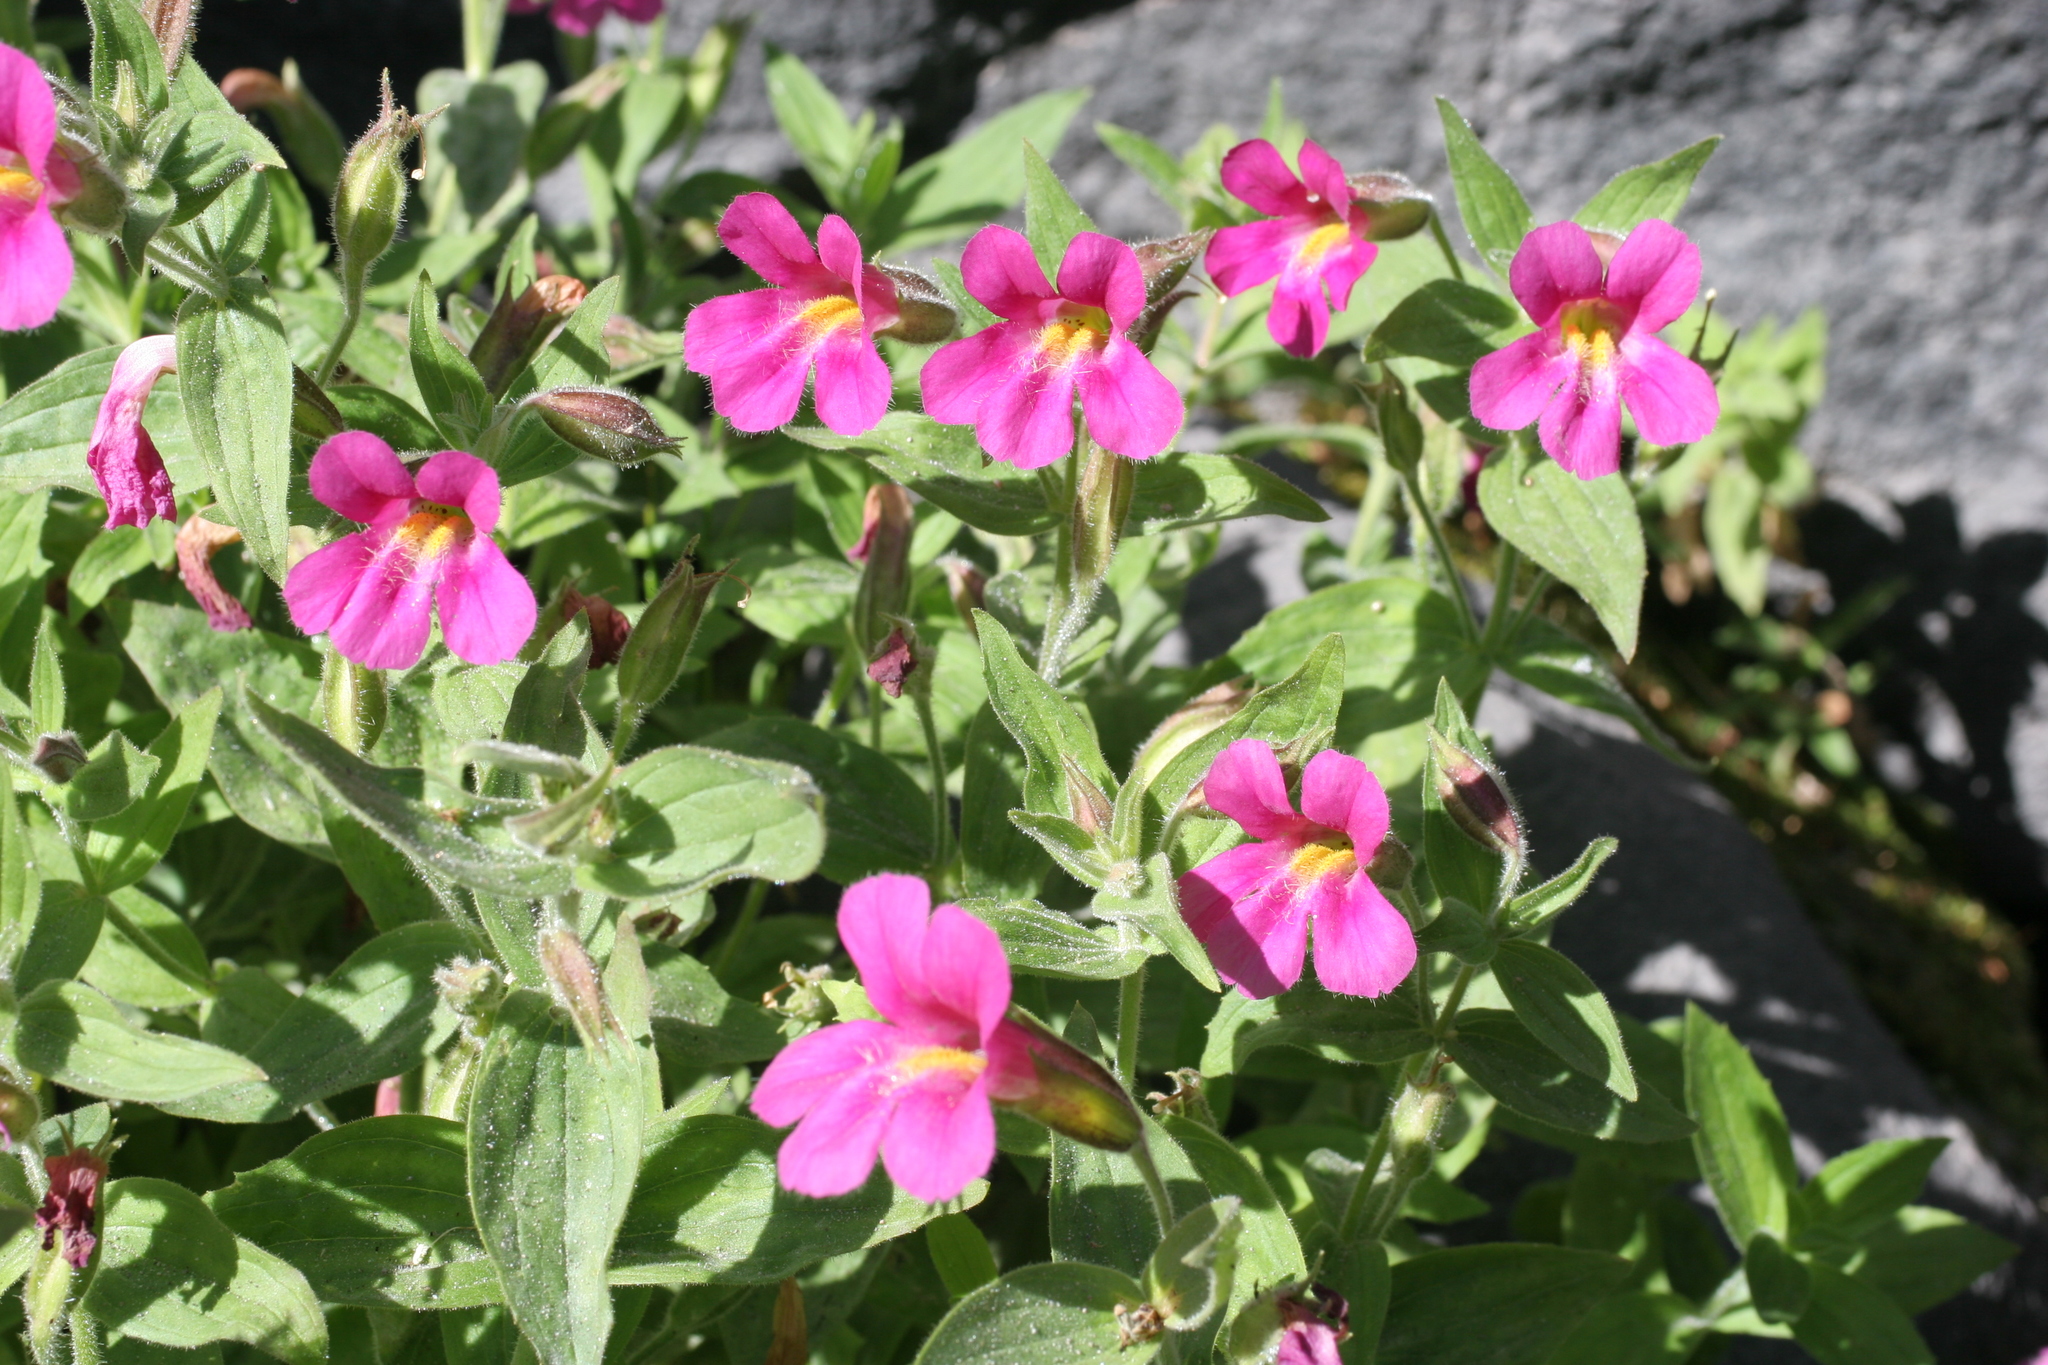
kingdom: Plantae
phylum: Tracheophyta
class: Magnoliopsida
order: Lamiales
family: Phrymaceae
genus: Erythranthe
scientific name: Erythranthe lewisii
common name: Lewis's monkey-flower
